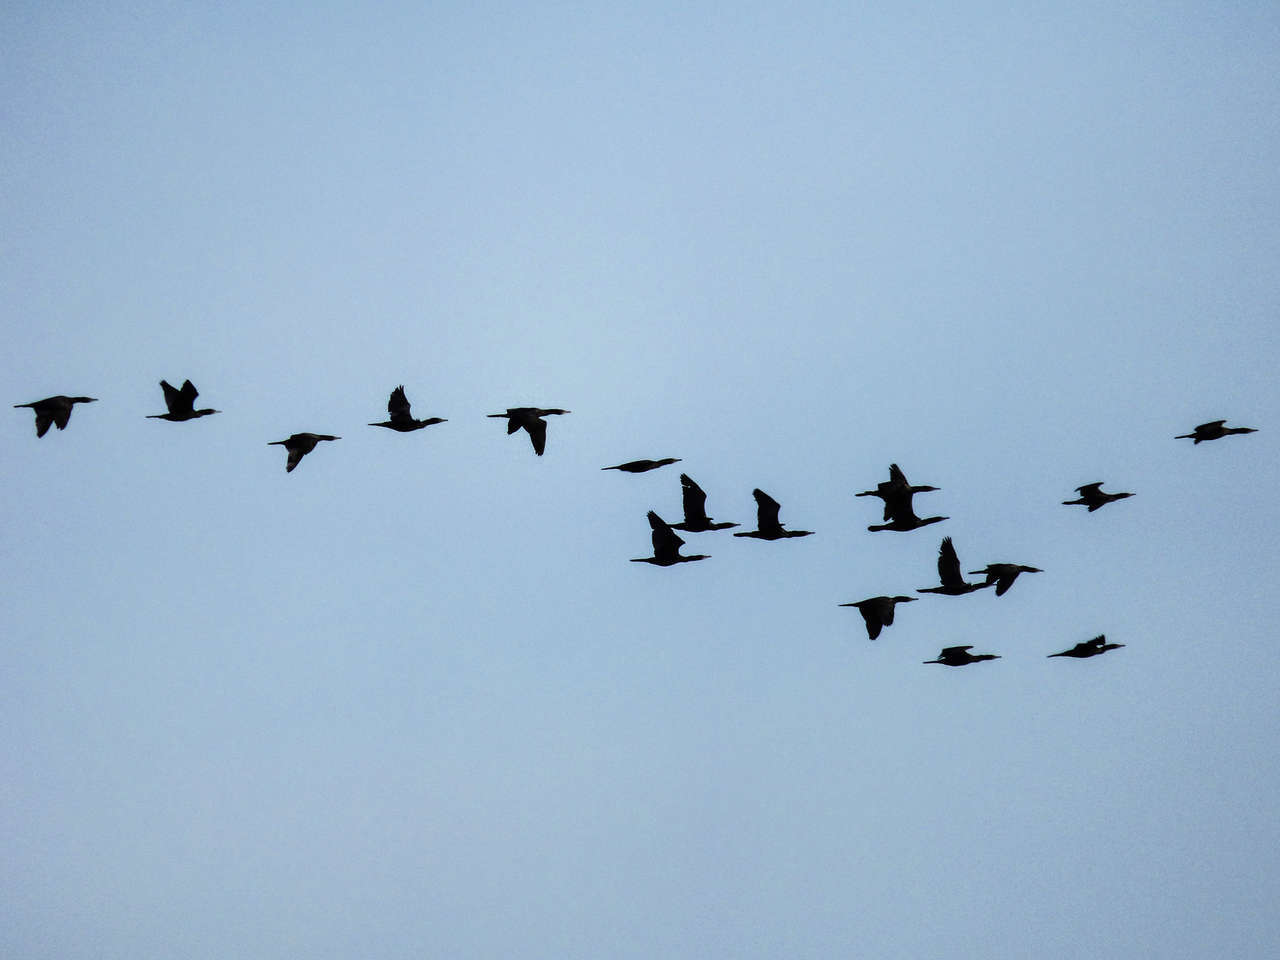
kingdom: Animalia
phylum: Chordata
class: Aves
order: Suliformes
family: Phalacrocoracidae
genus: Phalacrocorax
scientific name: Phalacrocorax sulcirostris
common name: Little black cormorant
